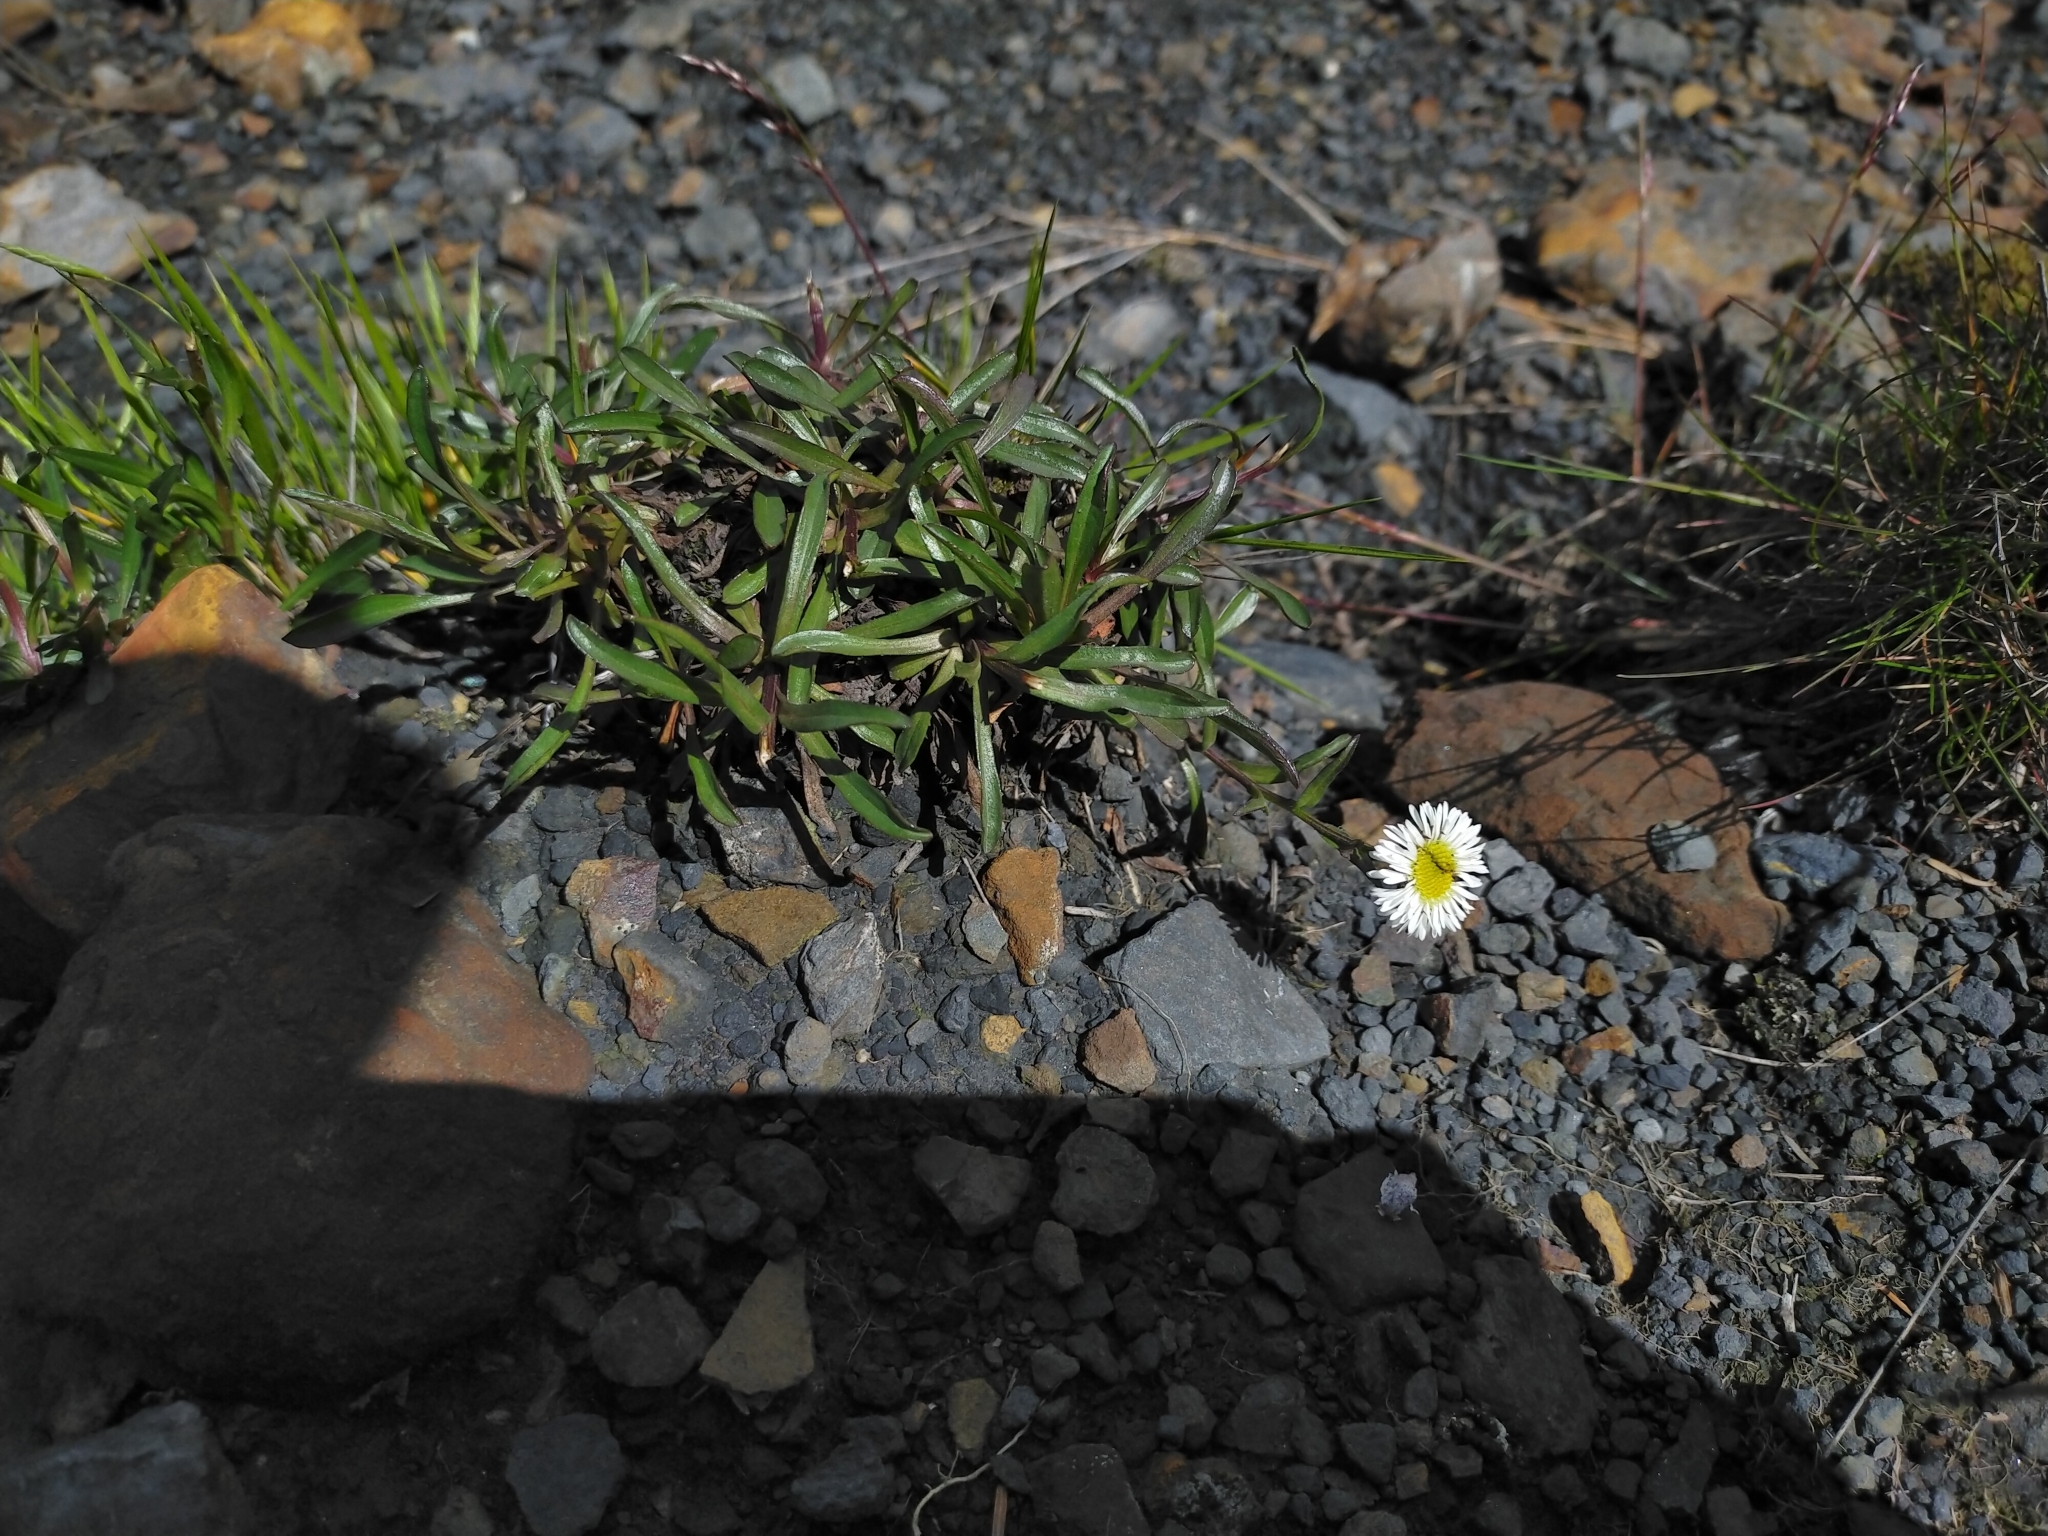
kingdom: Plantae
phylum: Tracheophyta
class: Magnoliopsida
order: Asterales
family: Asteraceae
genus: Erigeron
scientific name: Erigeron morrisonensis
